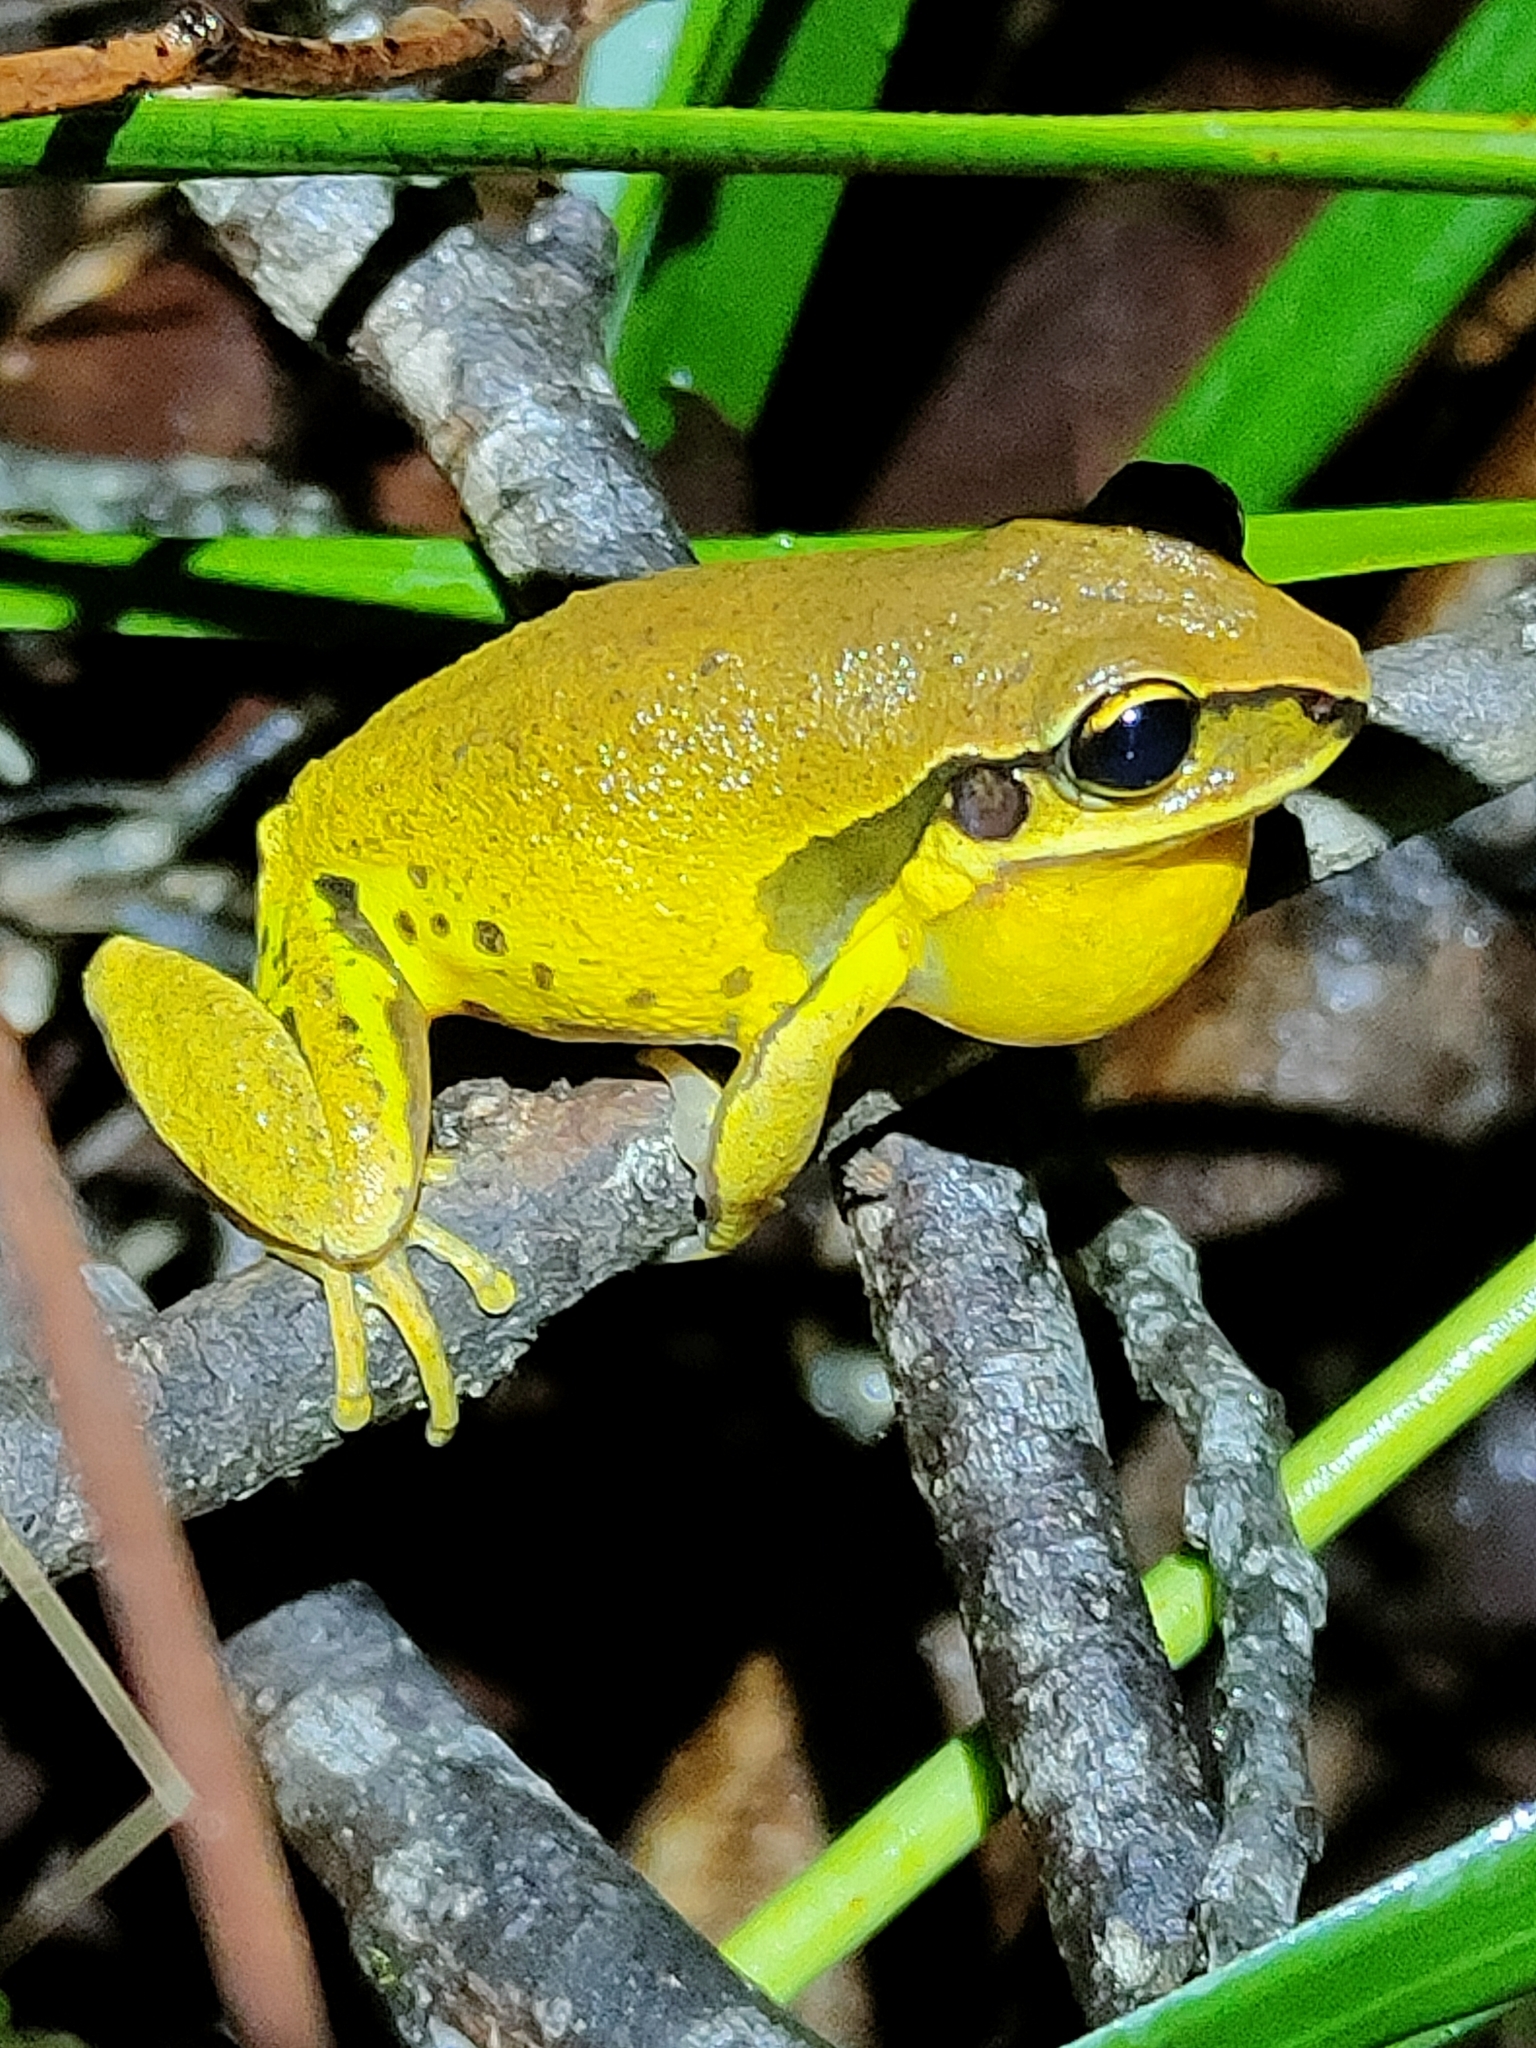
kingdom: Animalia
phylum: Chordata
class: Amphibia
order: Anura
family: Pelodryadidae
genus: Nyctimystes
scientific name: Nyctimystes brevipalmatus
